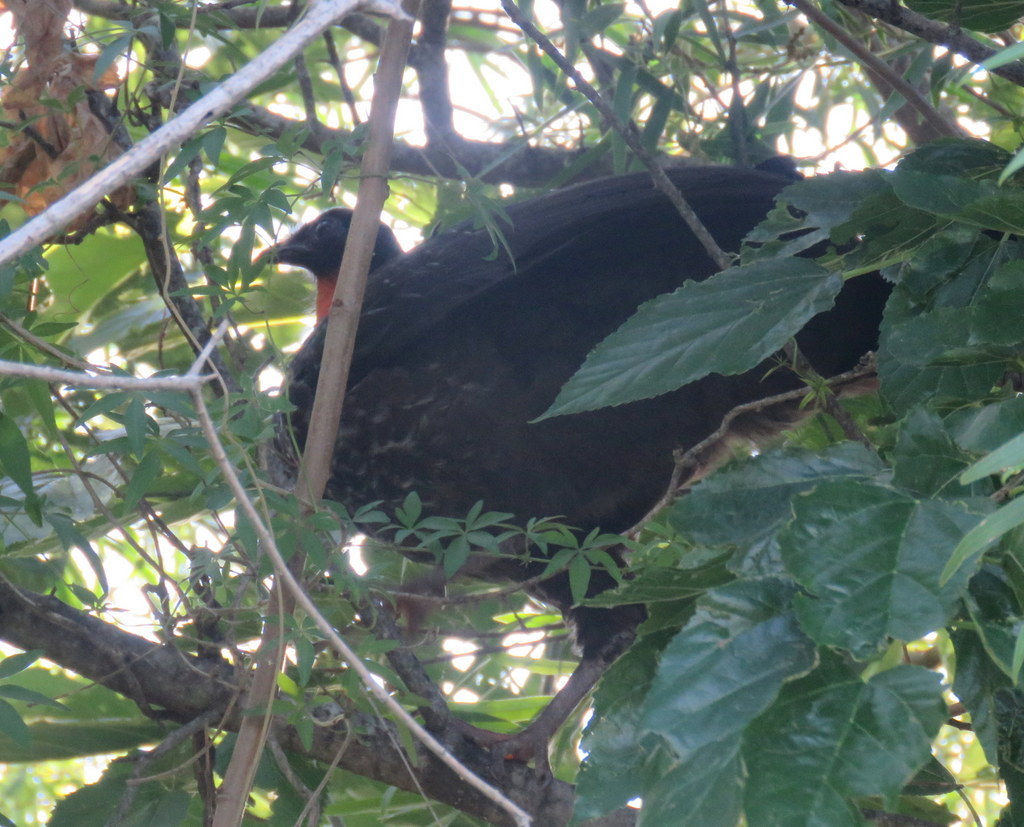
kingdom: Animalia
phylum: Chordata
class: Aves
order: Galliformes
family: Cracidae
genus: Penelope
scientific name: Penelope obscura
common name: Dusky-legged guan
